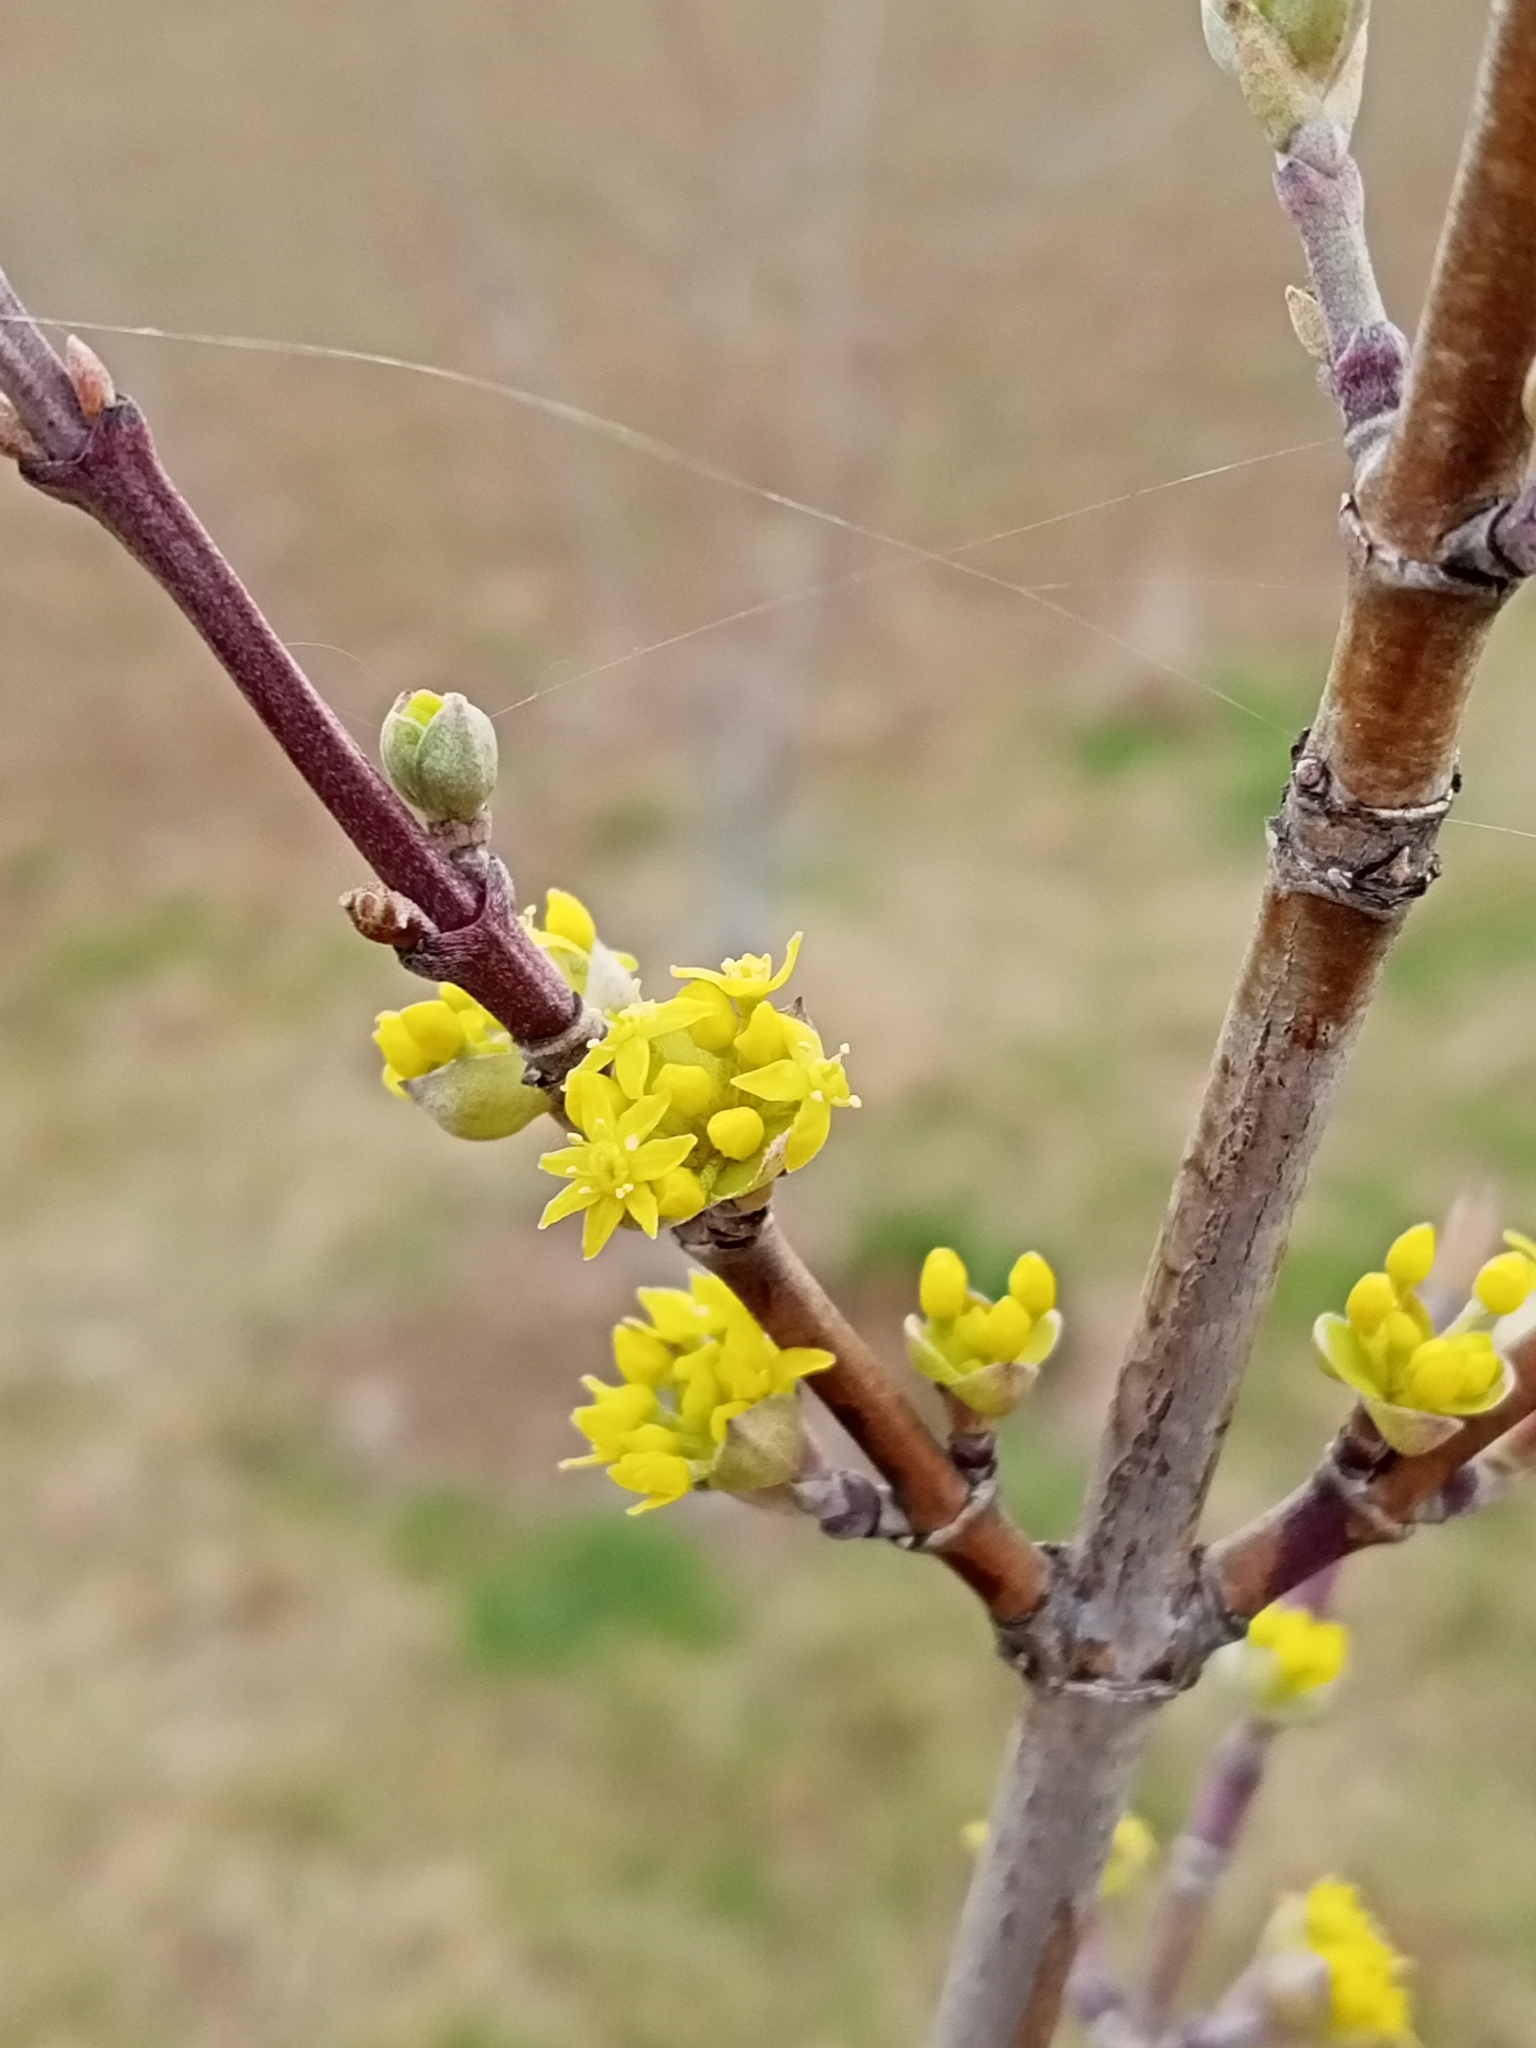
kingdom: Plantae
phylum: Tracheophyta
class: Magnoliopsida
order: Cornales
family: Cornaceae
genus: Cornus
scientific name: Cornus mas
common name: Cornelian-cherry
